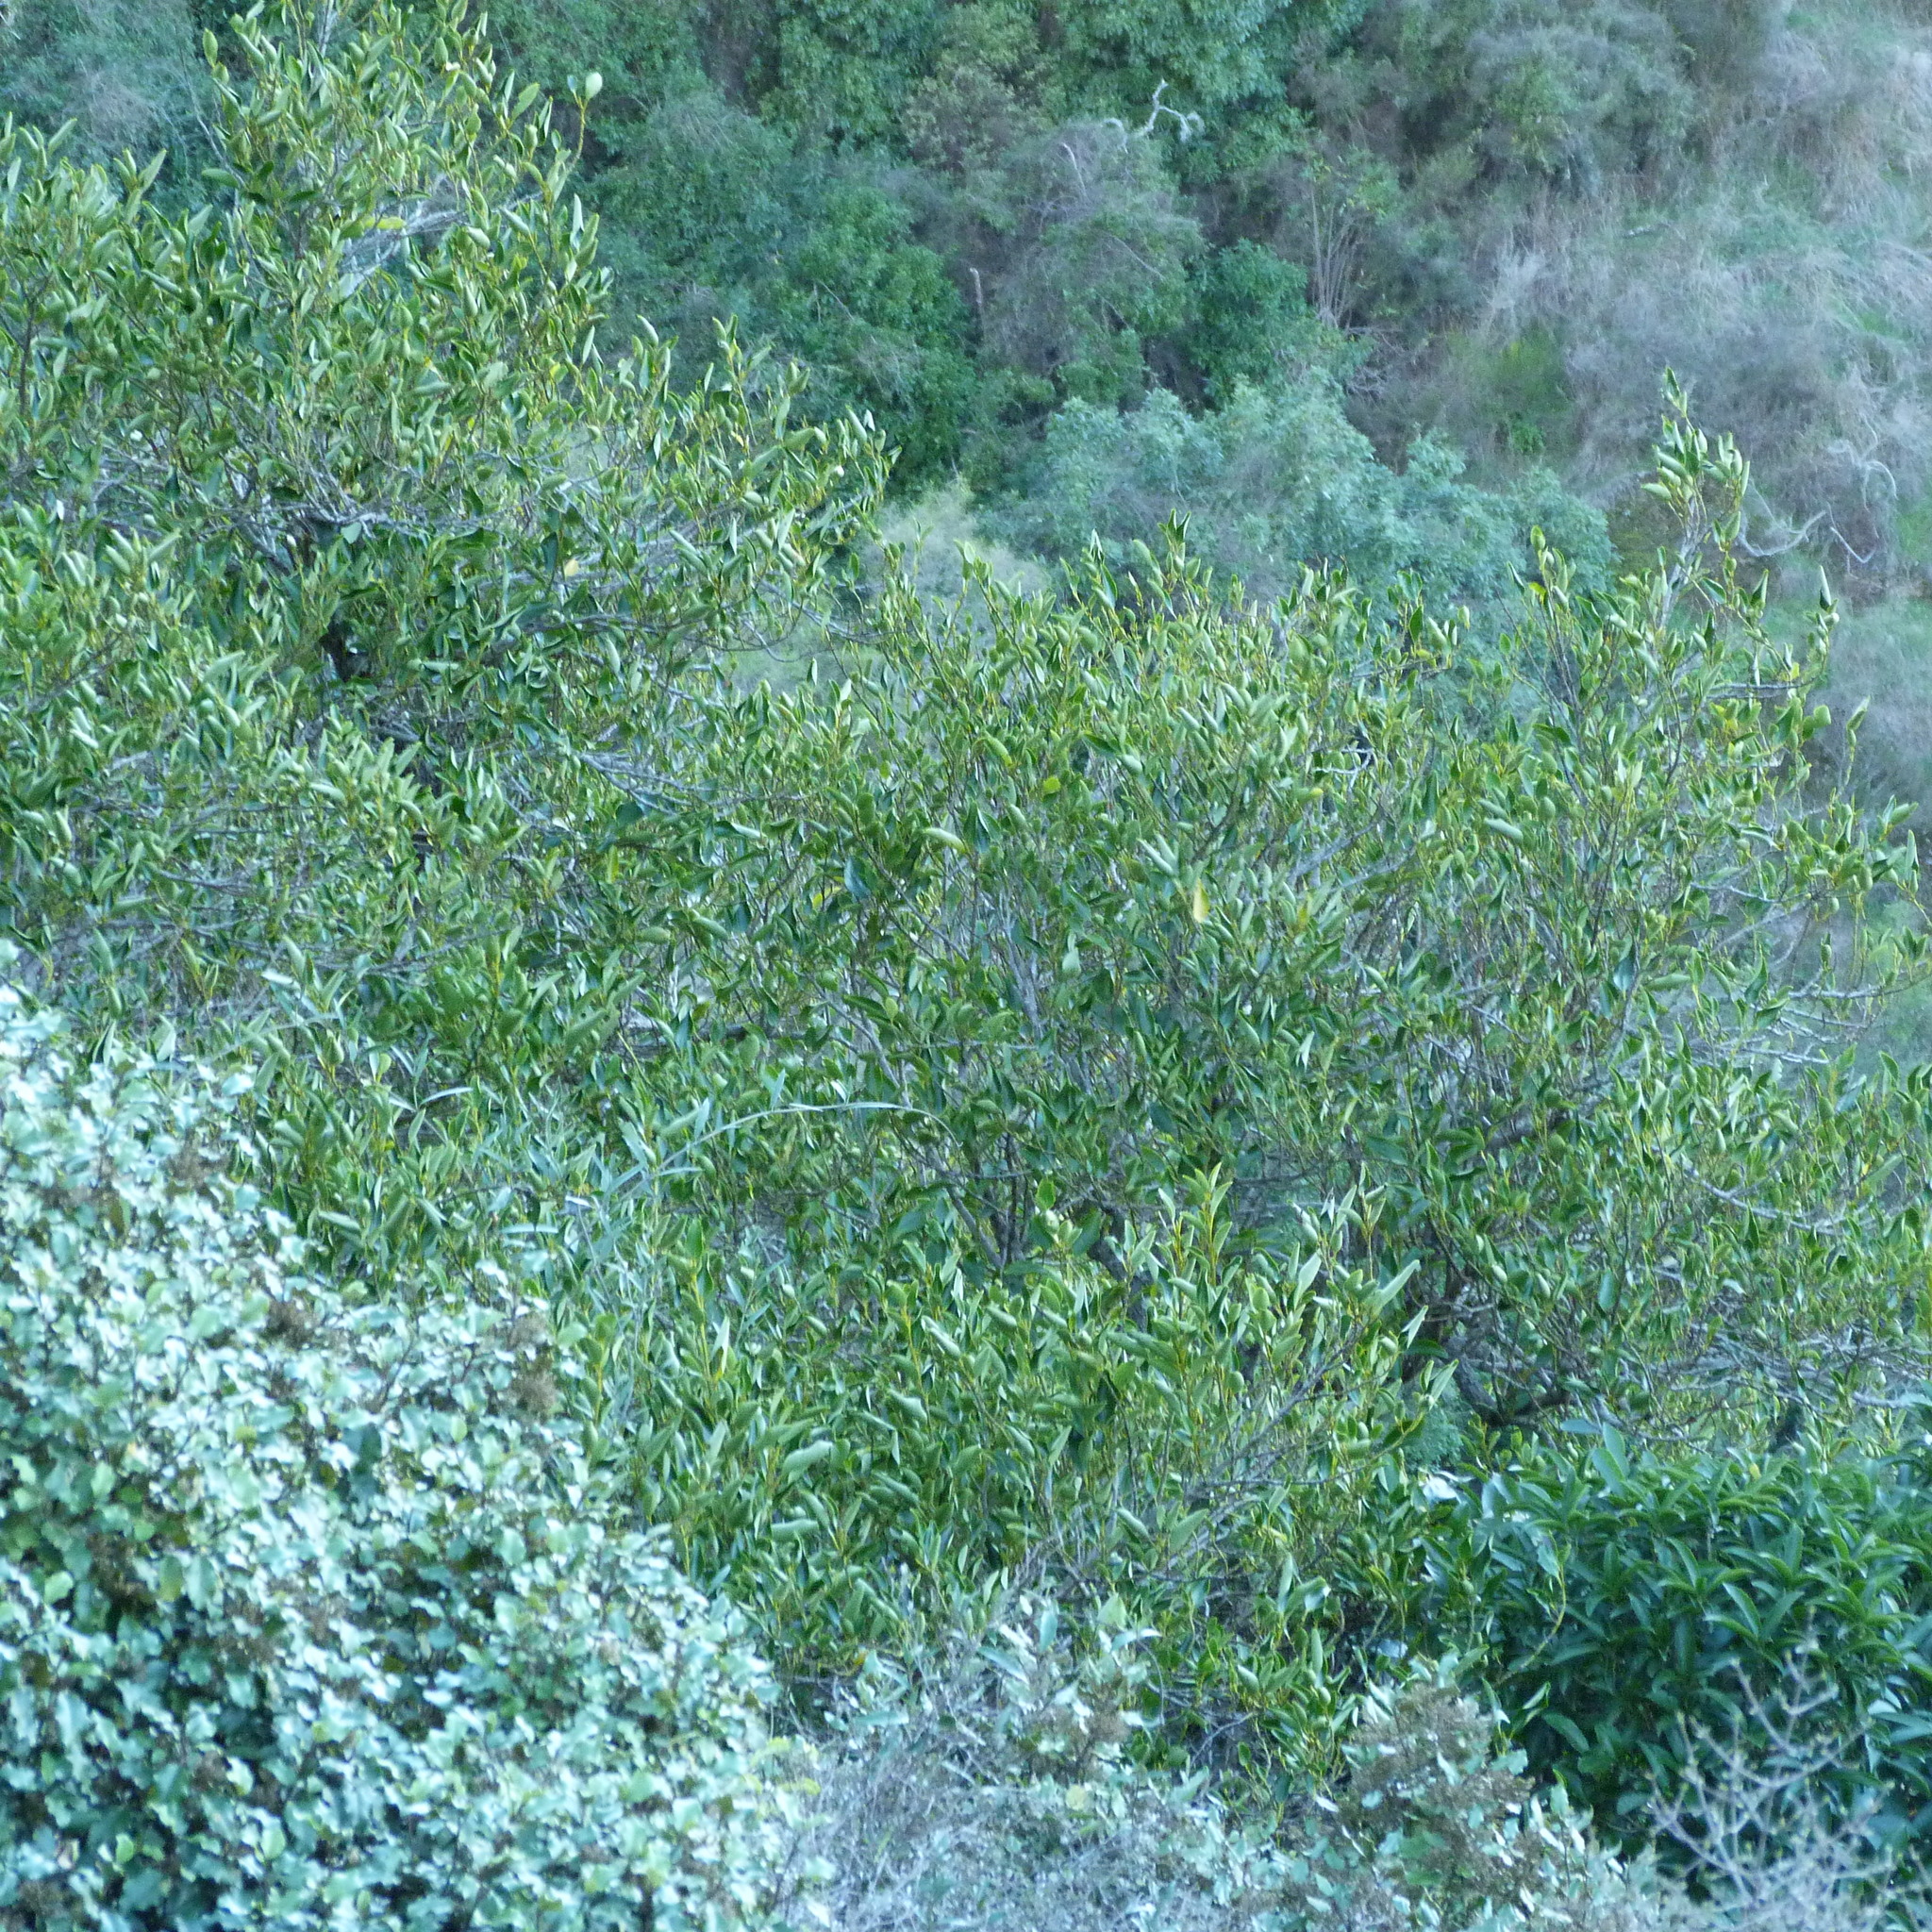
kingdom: Plantae
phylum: Tracheophyta
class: Magnoliopsida
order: Apiales
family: Griseliniaceae
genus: Griselinia
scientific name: Griselinia littoralis
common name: New zealand broadleaf
